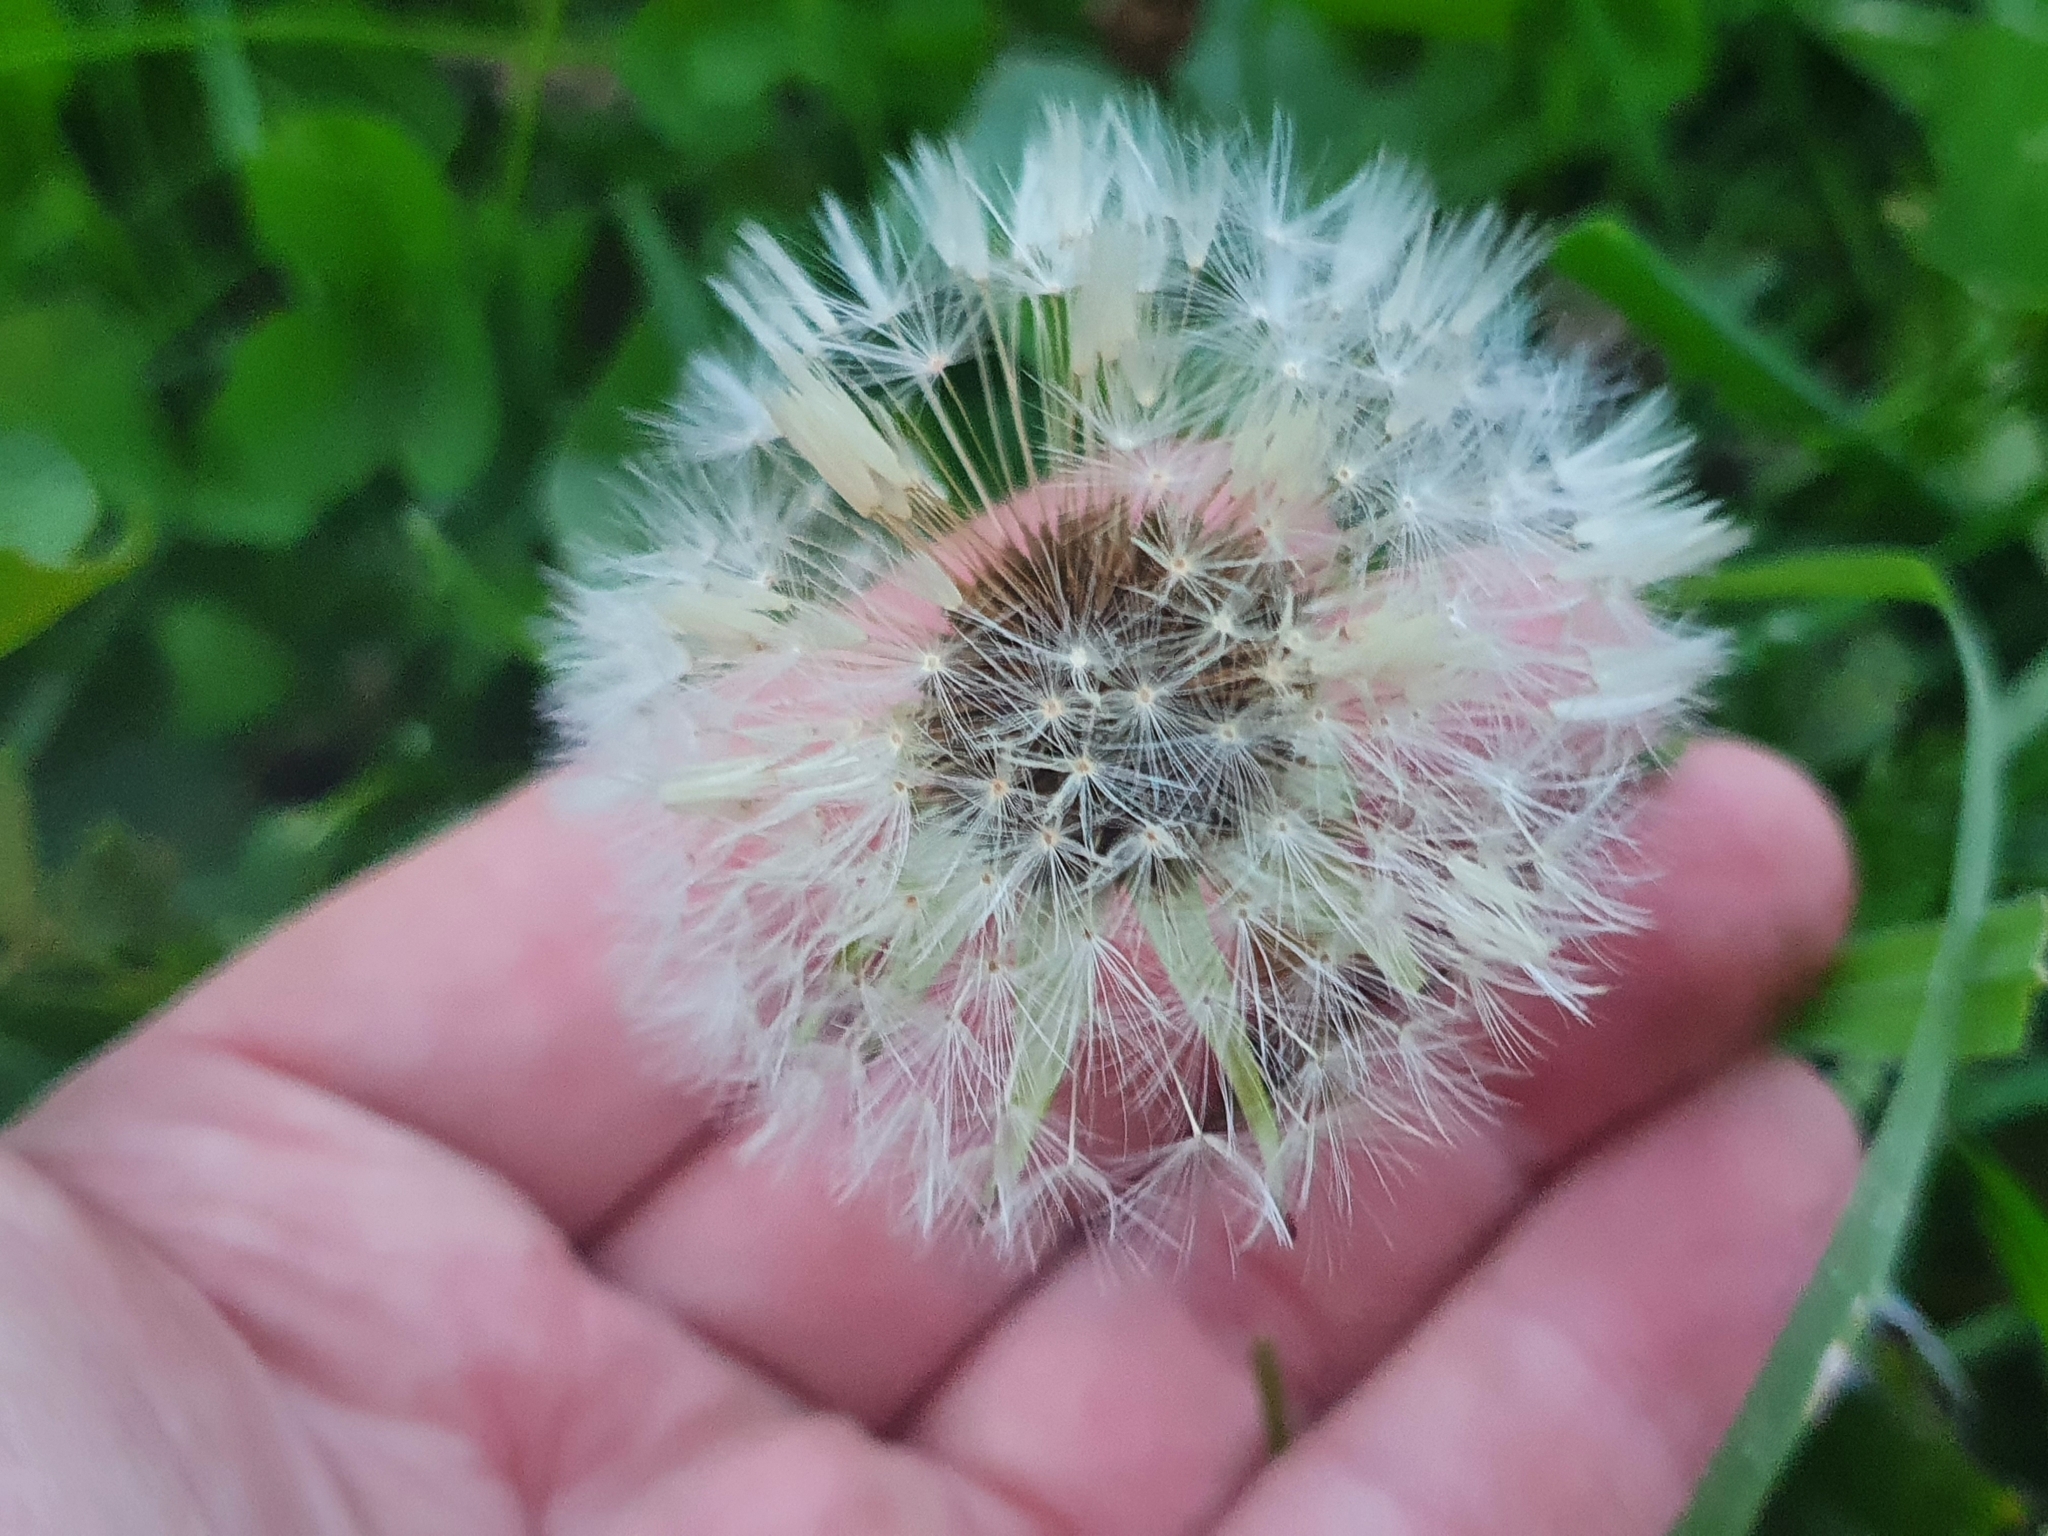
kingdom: Plantae
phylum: Tracheophyta
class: Magnoliopsida
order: Asterales
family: Asteraceae
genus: Taraxacum
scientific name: Taraxacum officinale
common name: Common dandelion
